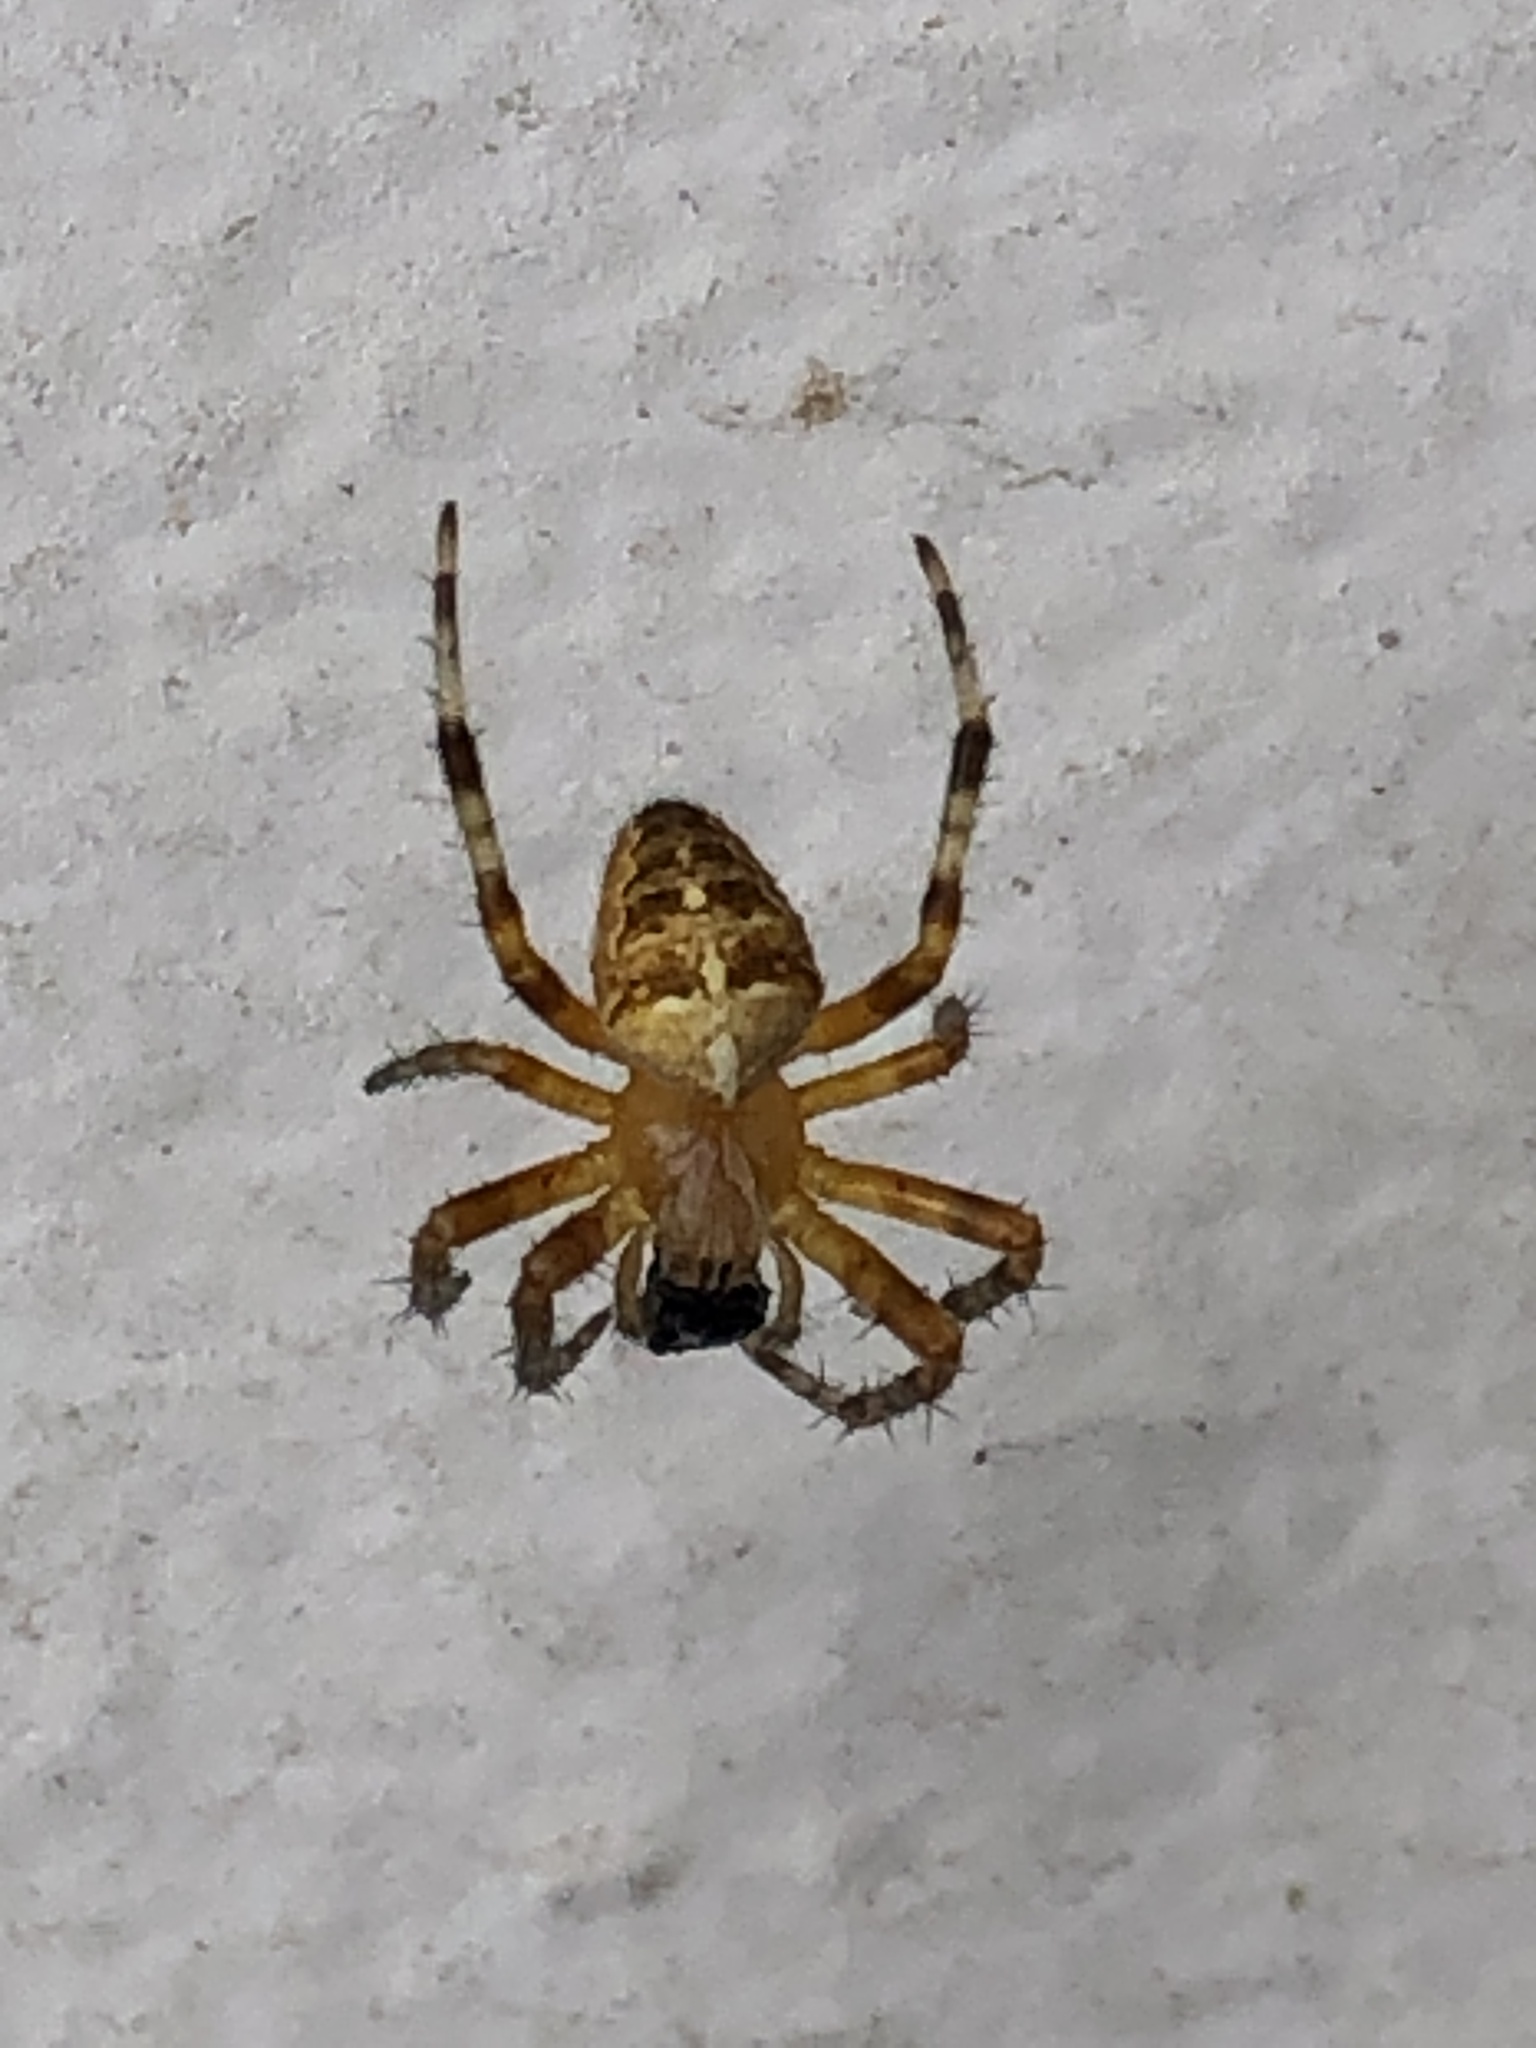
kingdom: Animalia
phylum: Arthropoda
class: Arachnida
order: Araneae
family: Araneidae
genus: Araneus
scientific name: Araneus diadematus
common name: Cross orbweaver
